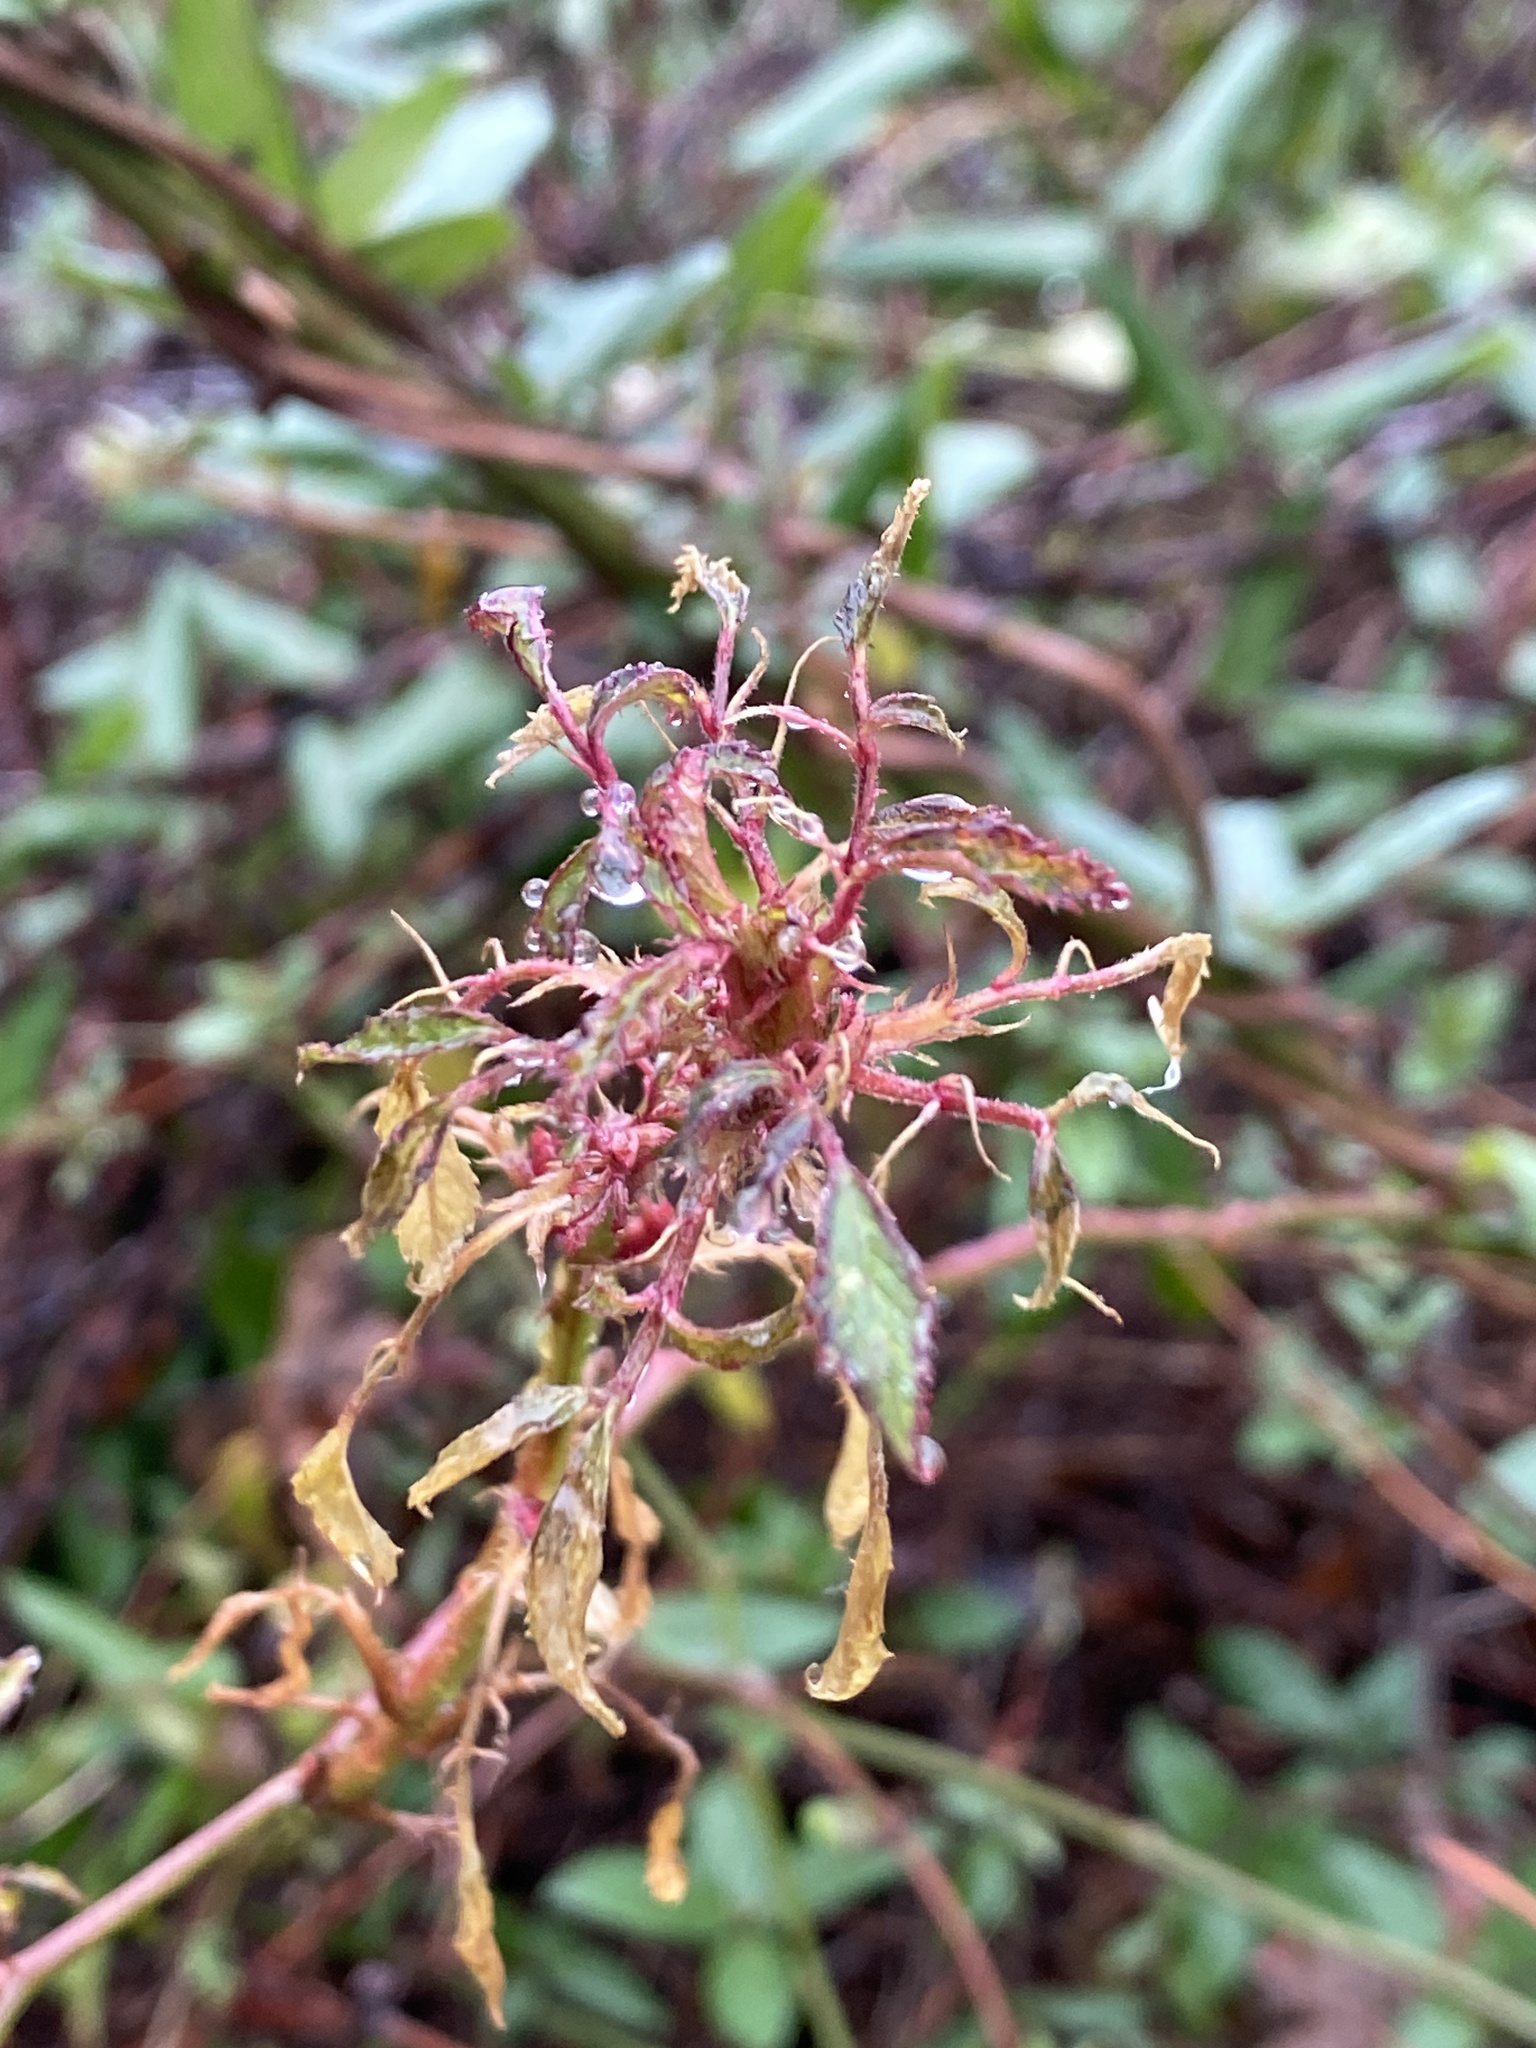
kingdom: Viruses
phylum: Negarnaviricota
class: Ellioviricetes
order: Bunyavirales
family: Fimoviridae
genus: Emaravirus
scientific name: Emaravirus rosae
